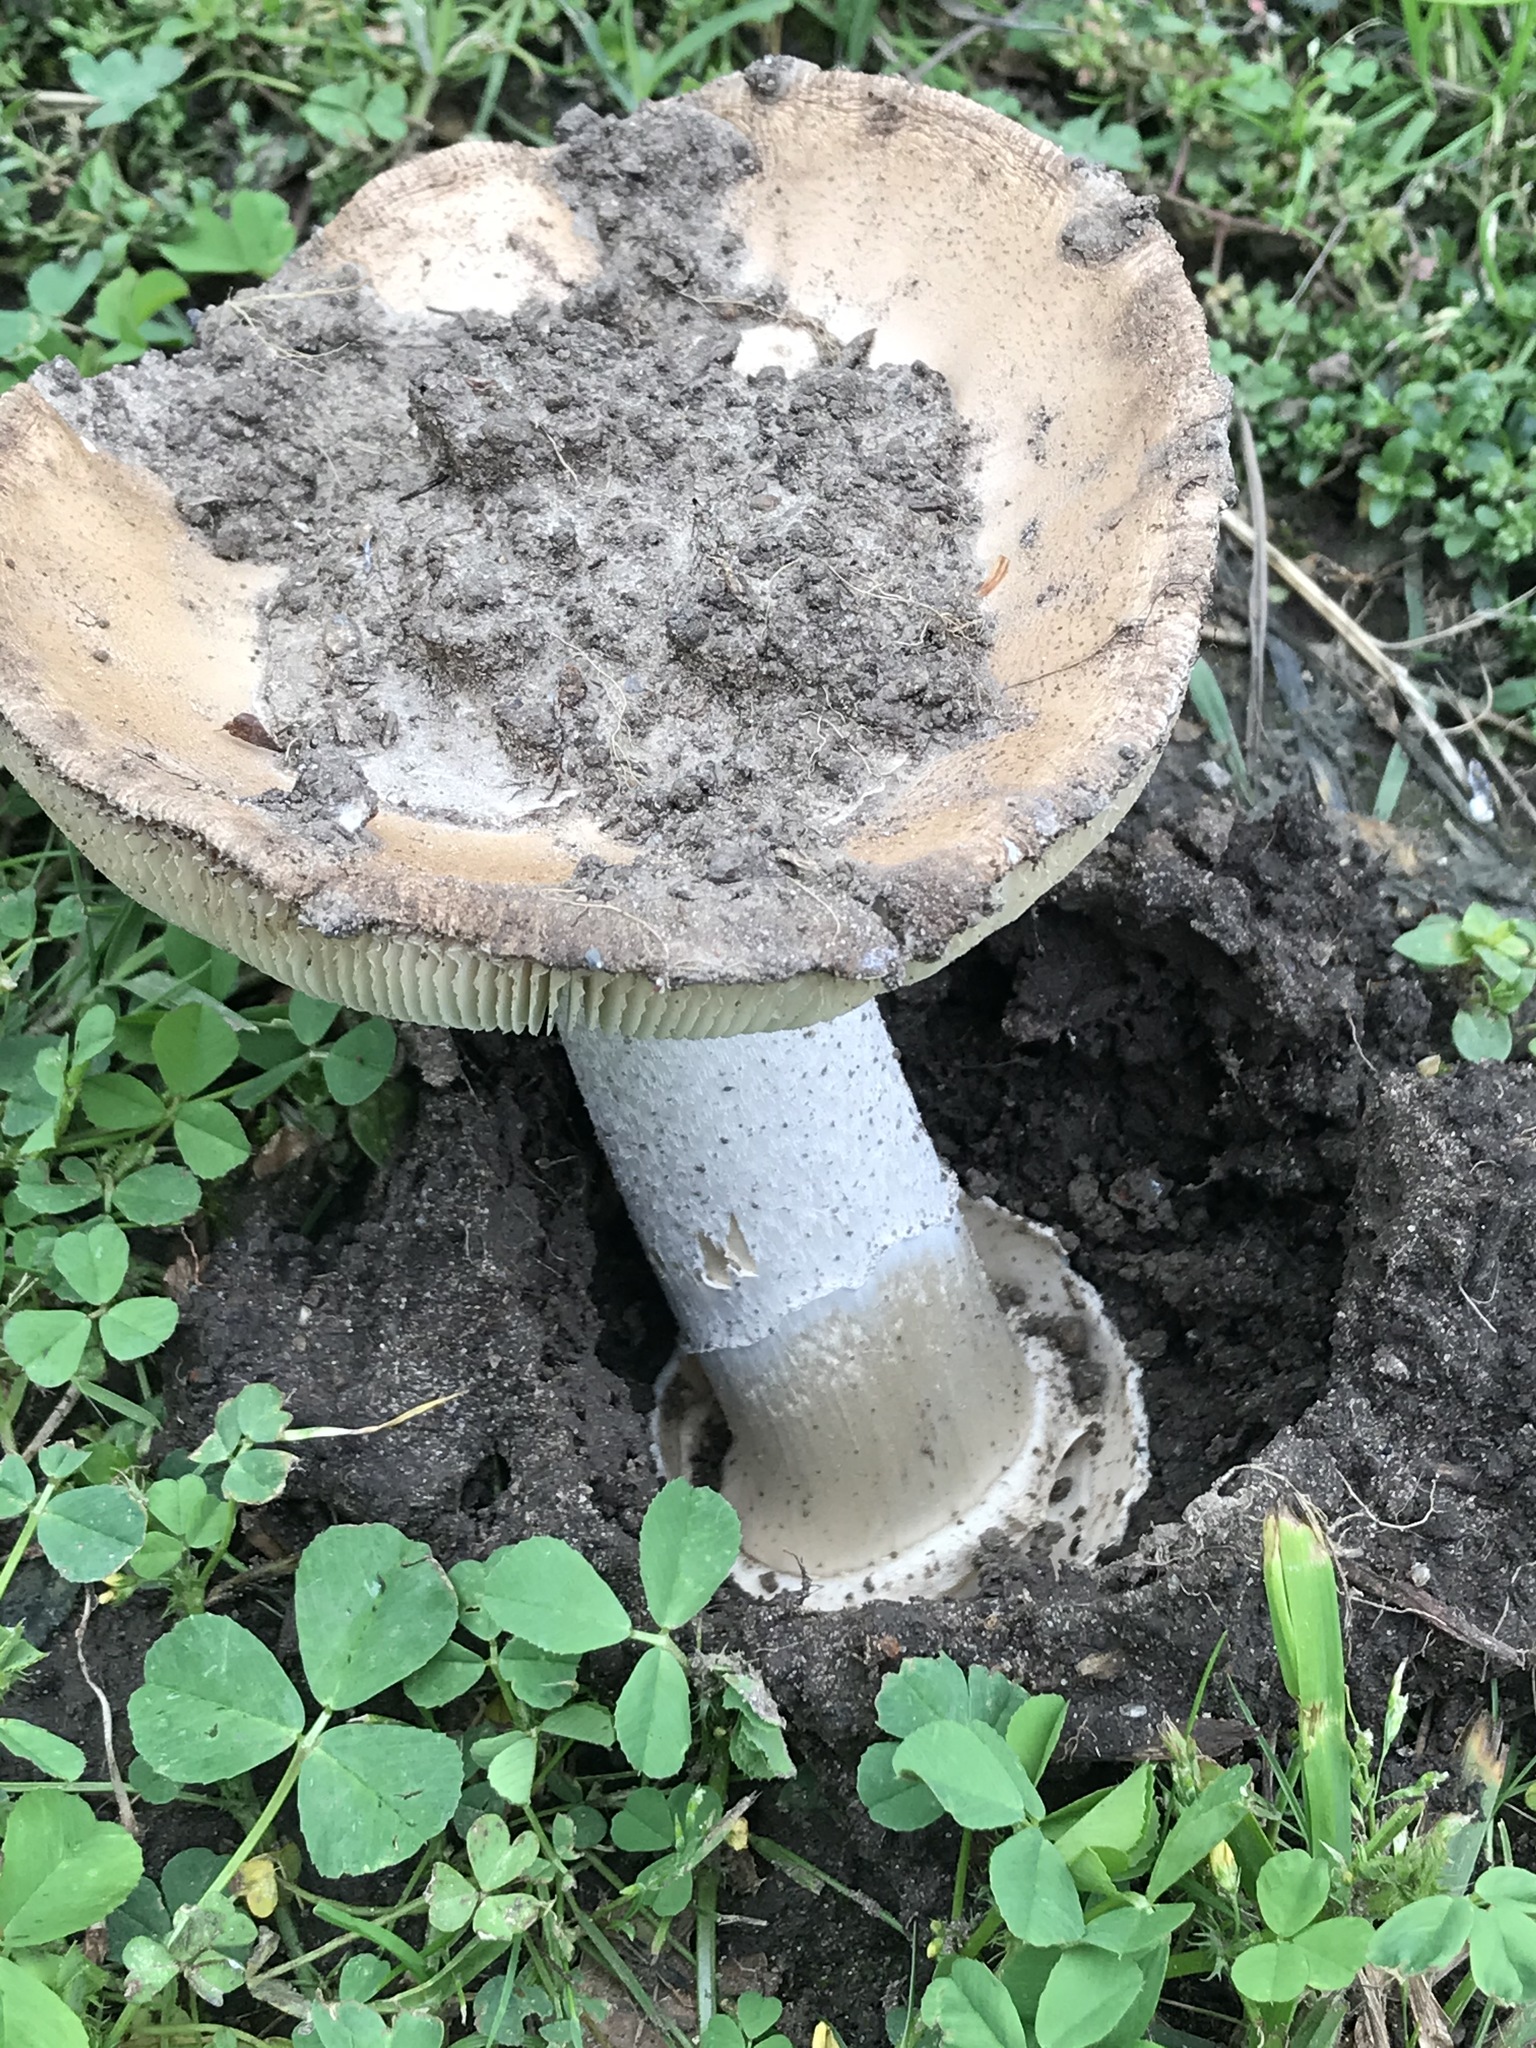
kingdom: Fungi
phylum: Basidiomycota
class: Agaricomycetes
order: Agaricales
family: Amanitaceae
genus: Amanita
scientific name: Amanita velosa
